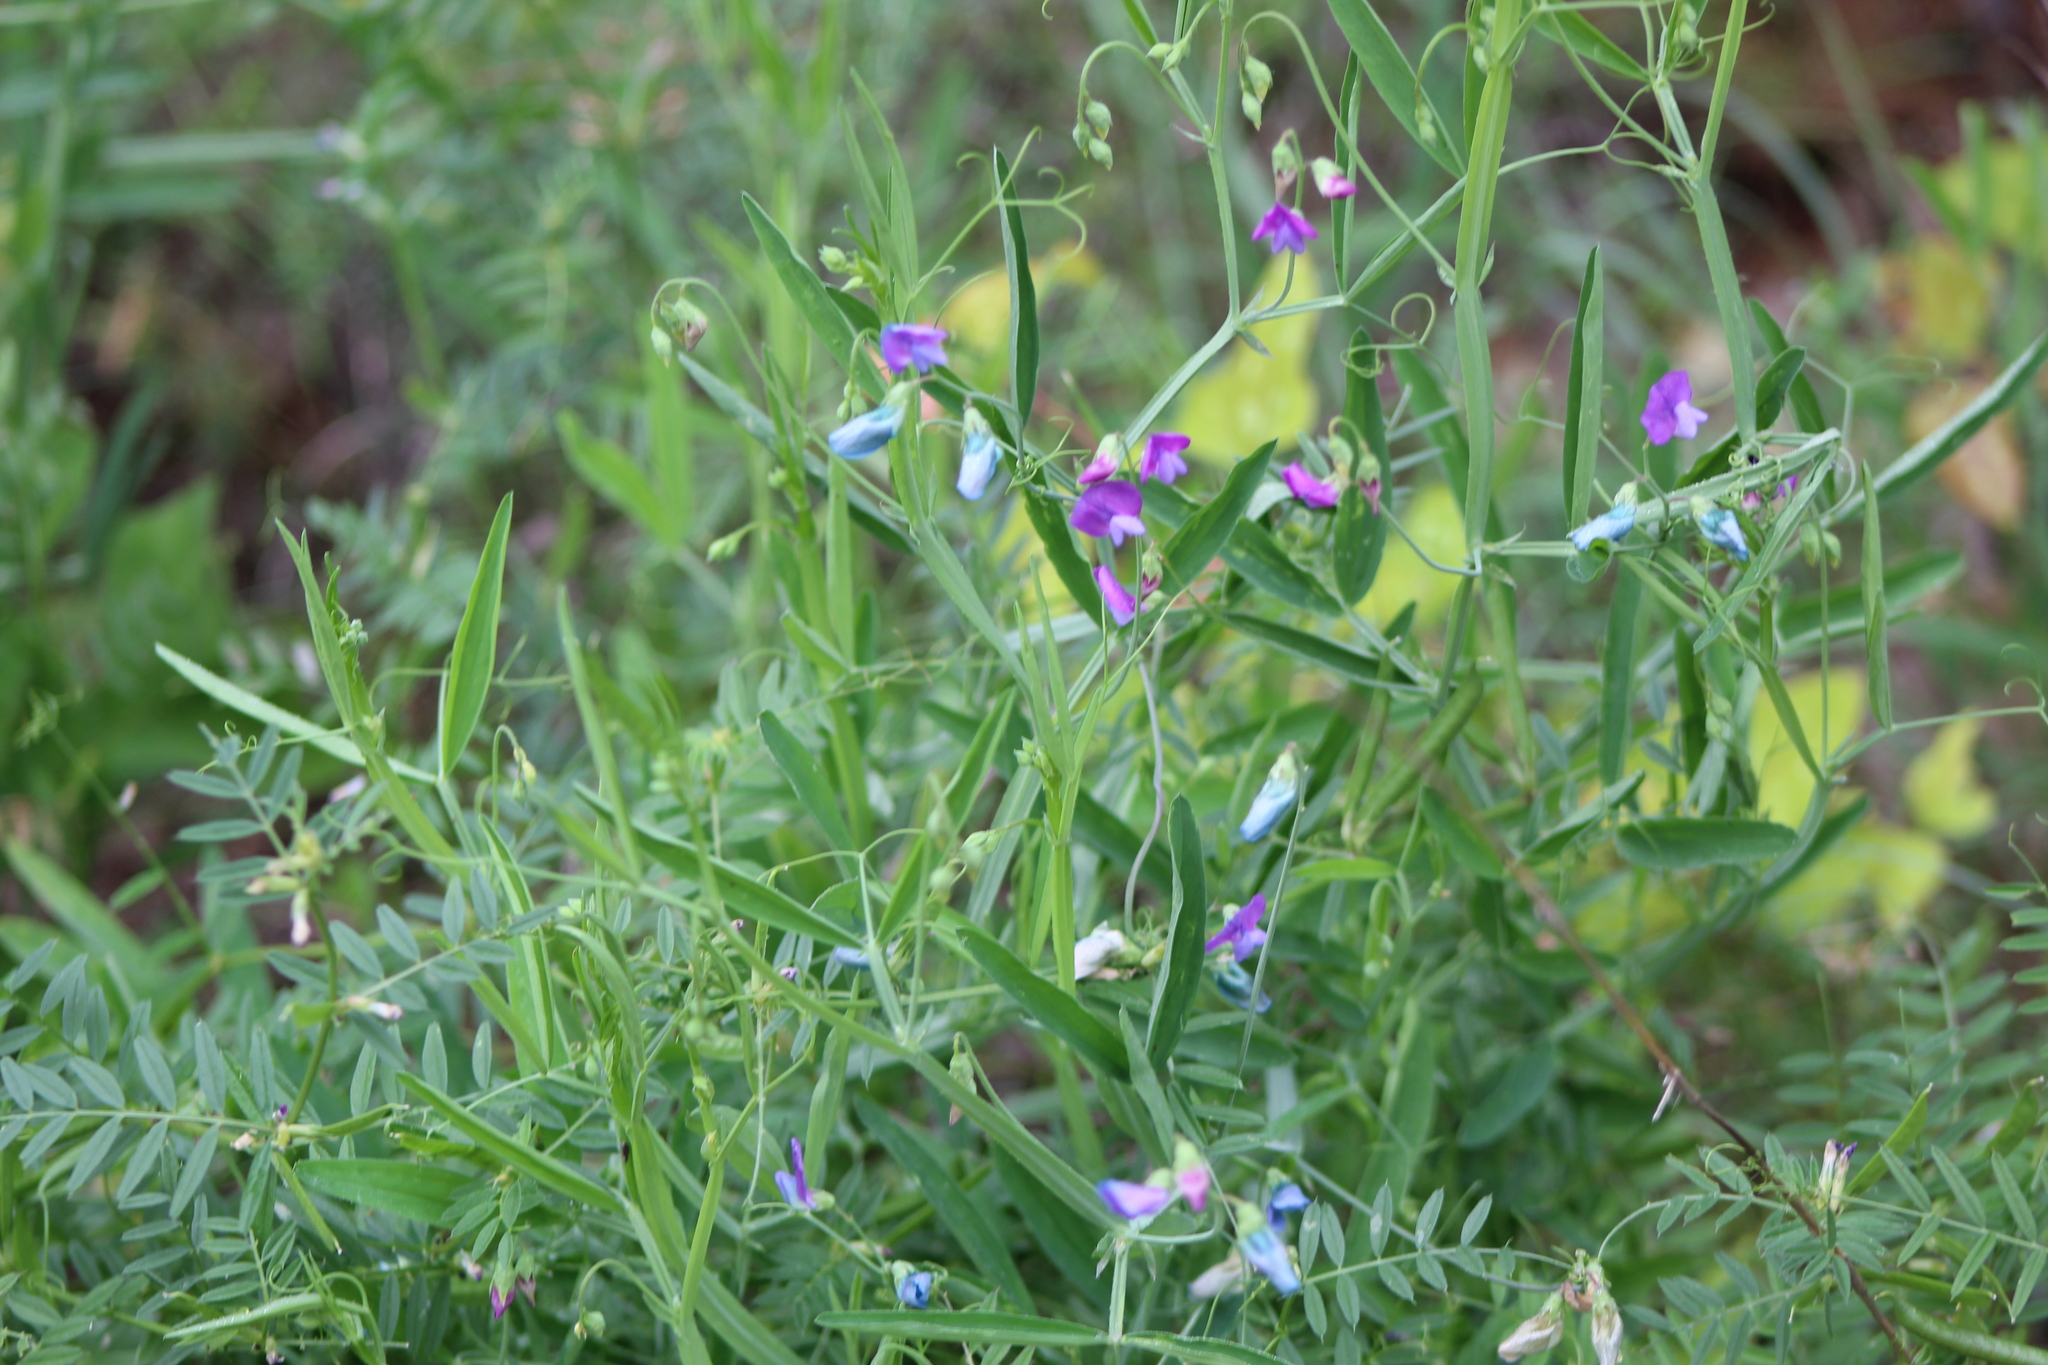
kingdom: Plantae
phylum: Tracheophyta
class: Magnoliopsida
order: Fabales
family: Fabaceae
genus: Lathyrus
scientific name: Lathyrus hirsutus
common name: Hairy vetchling
